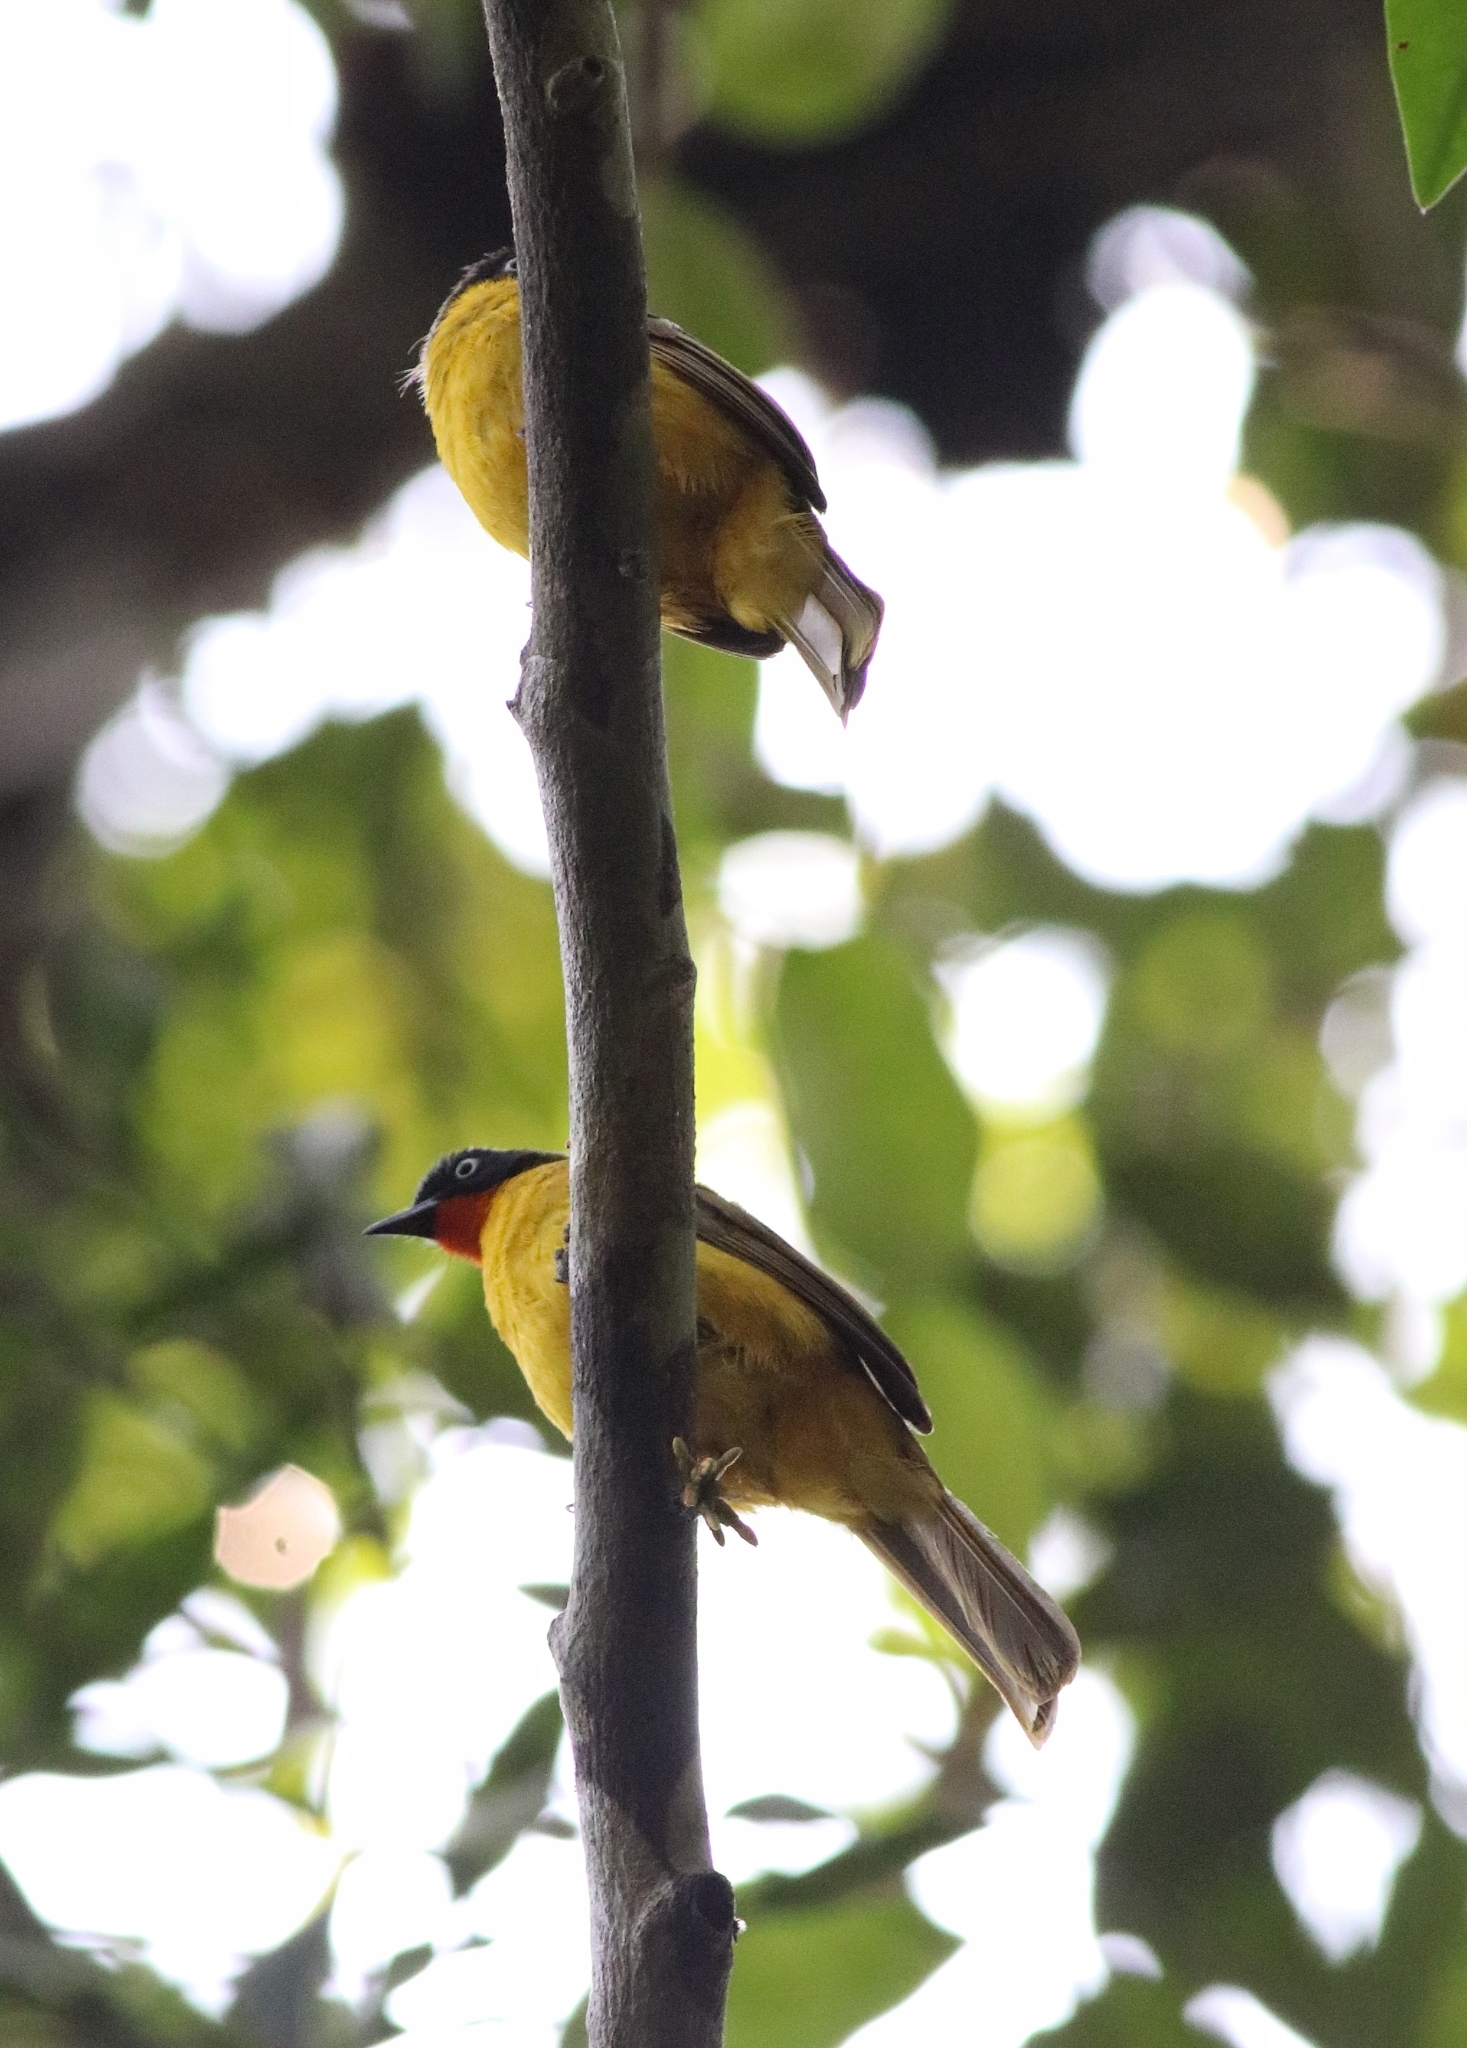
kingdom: Animalia
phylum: Chordata
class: Aves
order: Passeriformes
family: Pycnonotidae
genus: Pycnonotus
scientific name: Pycnonotus gularis
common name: Flame-throated bulbul
